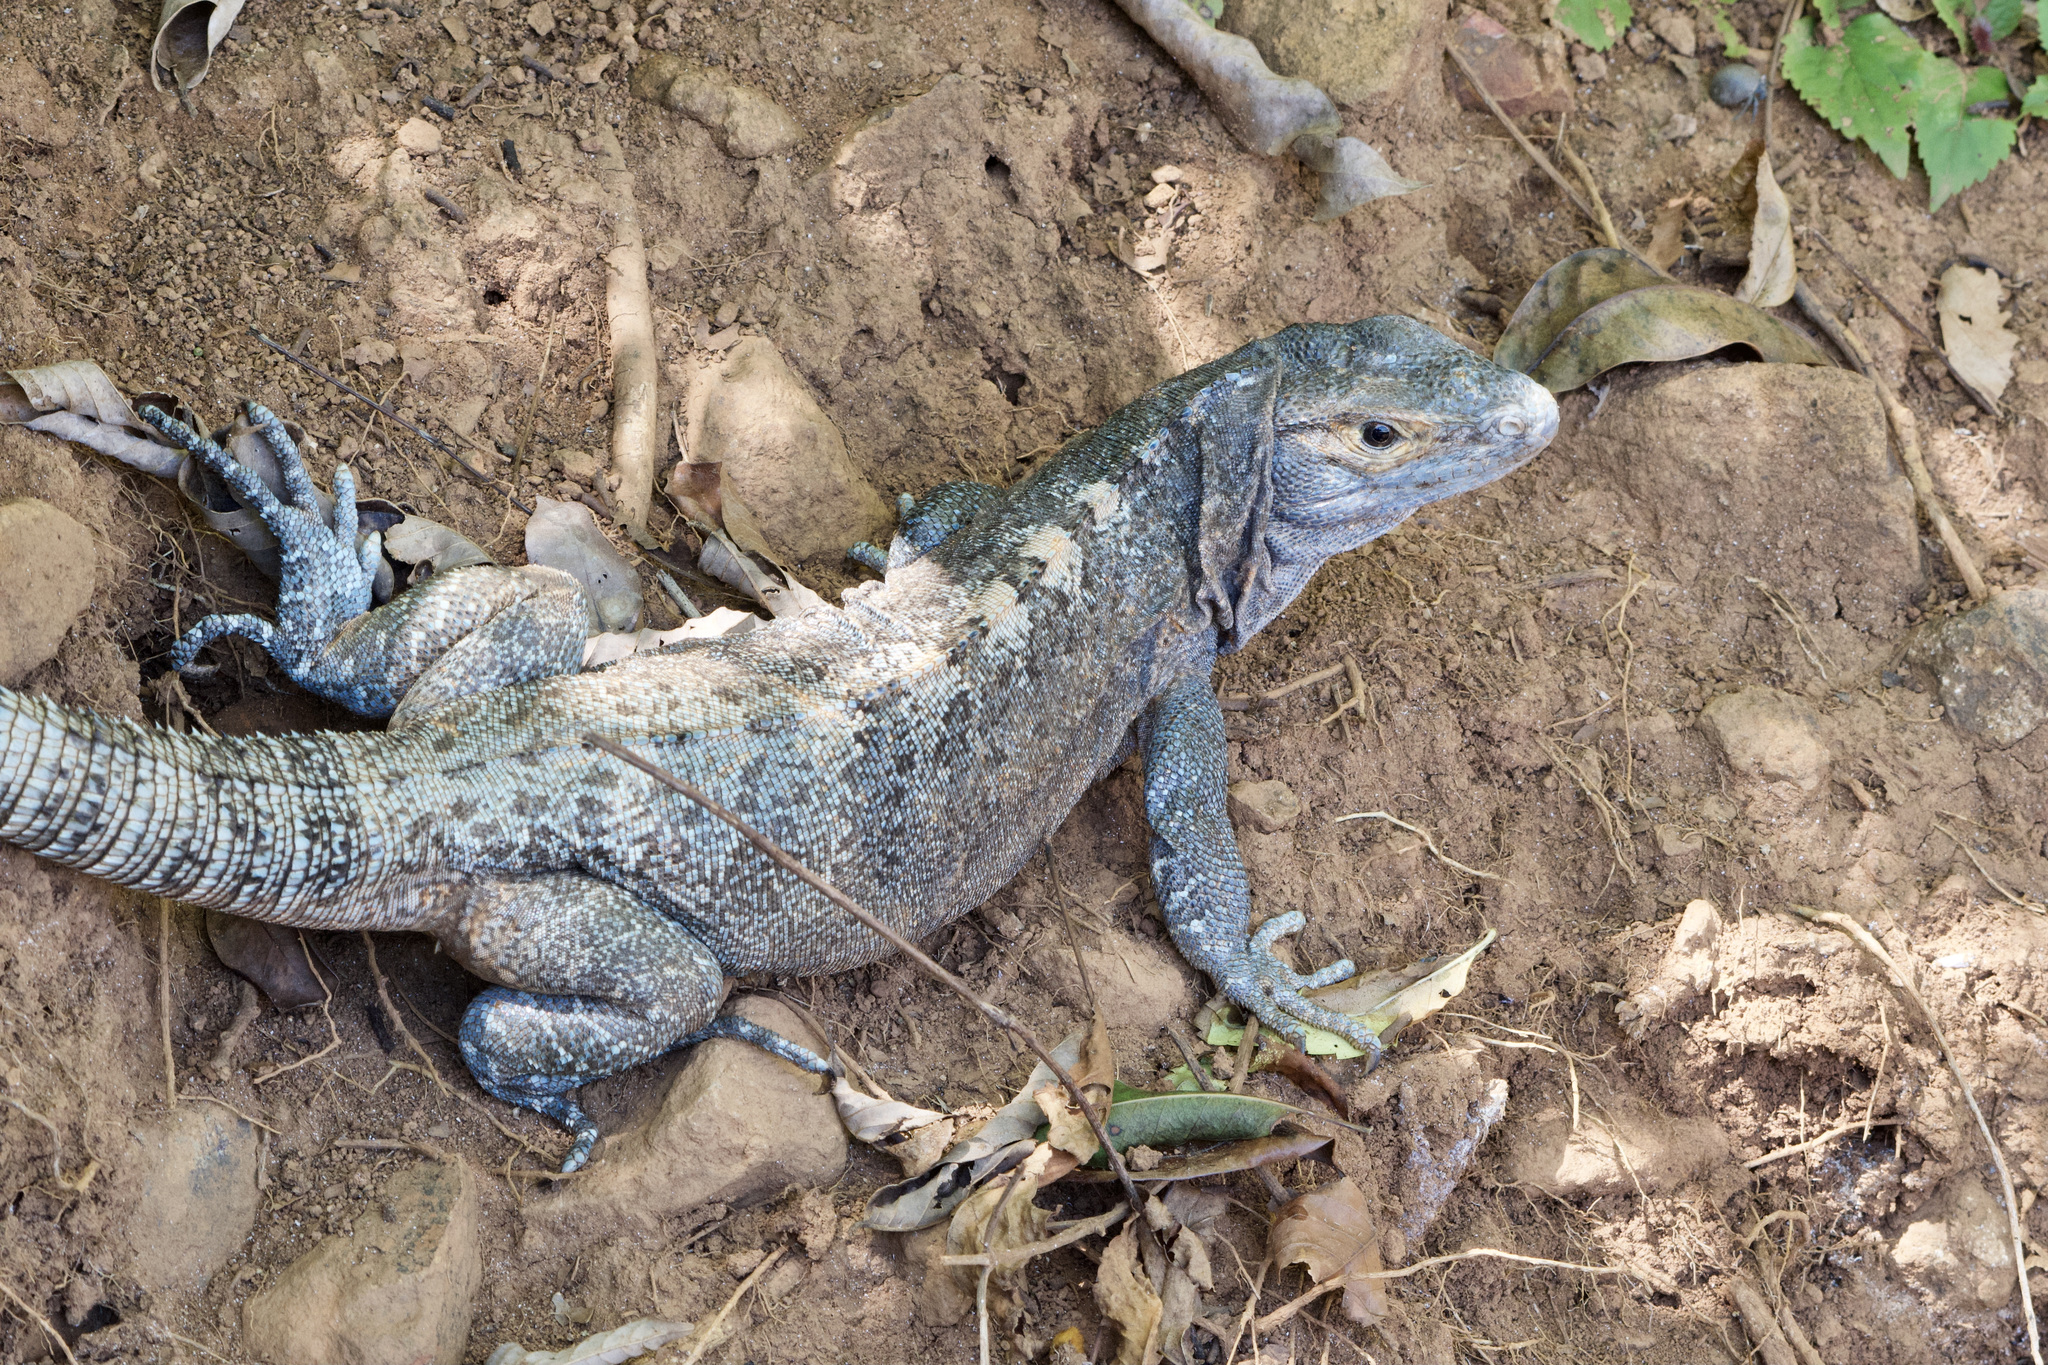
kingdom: Animalia
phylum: Chordata
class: Squamata
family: Iguanidae
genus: Ctenosaura
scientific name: Ctenosaura similis
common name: Black spiny-tailed iguana
